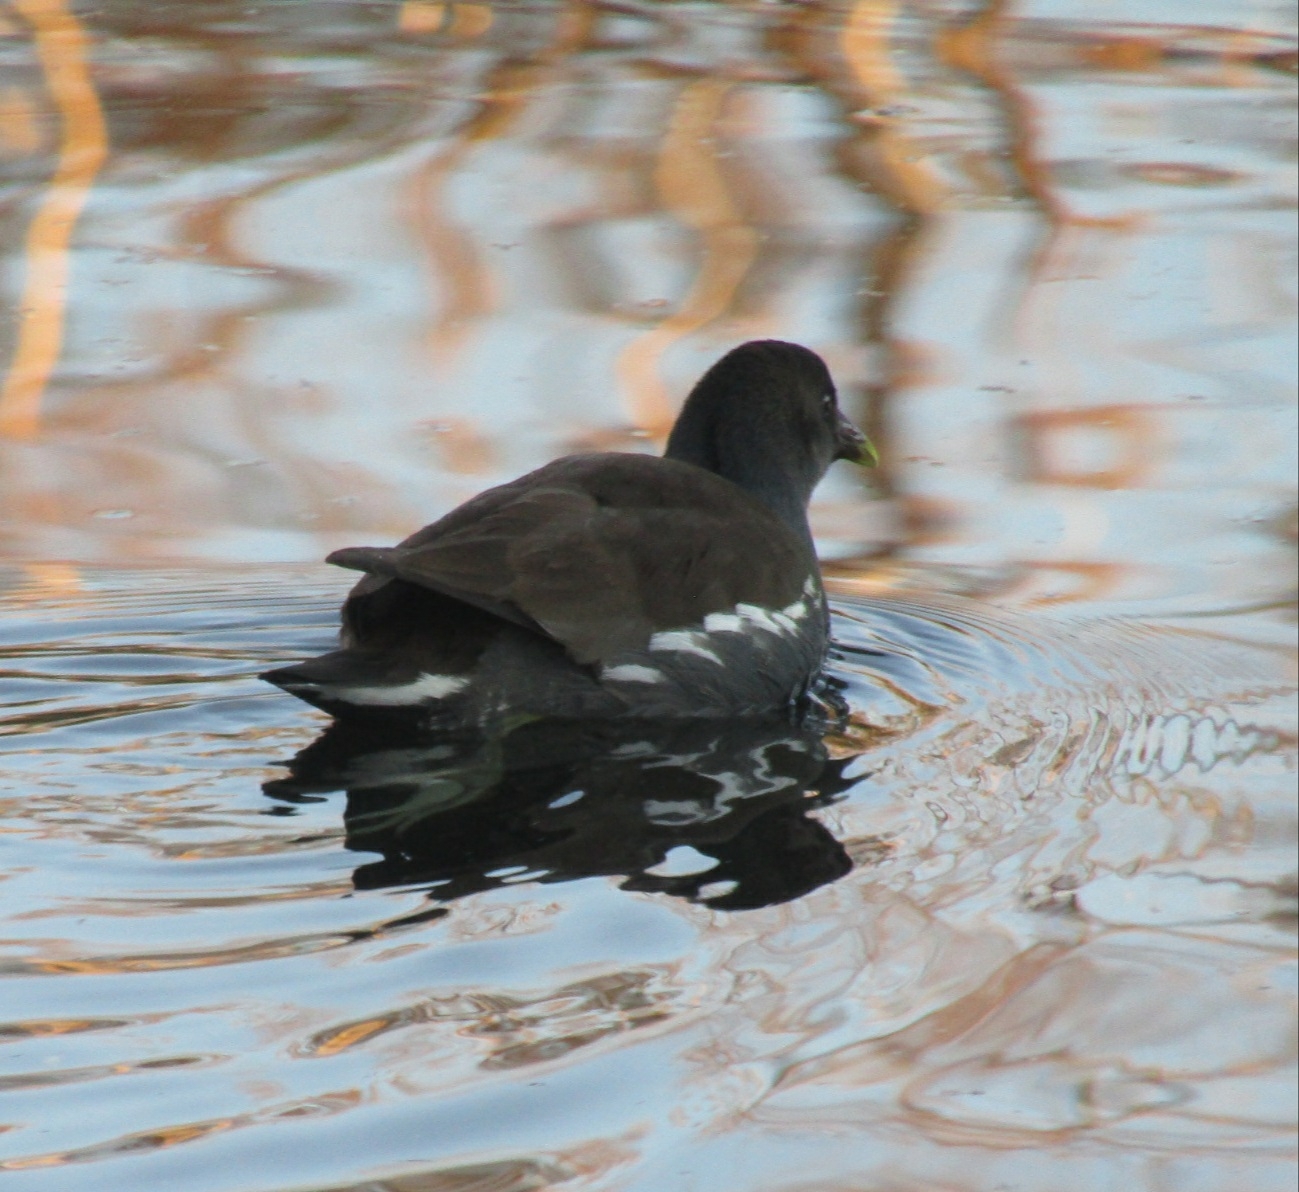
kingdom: Animalia
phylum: Chordata
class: Aves
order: Gruiformes
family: Rallidae
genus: Gallinula
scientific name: Gallinula chloropus
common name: Common moorhen
